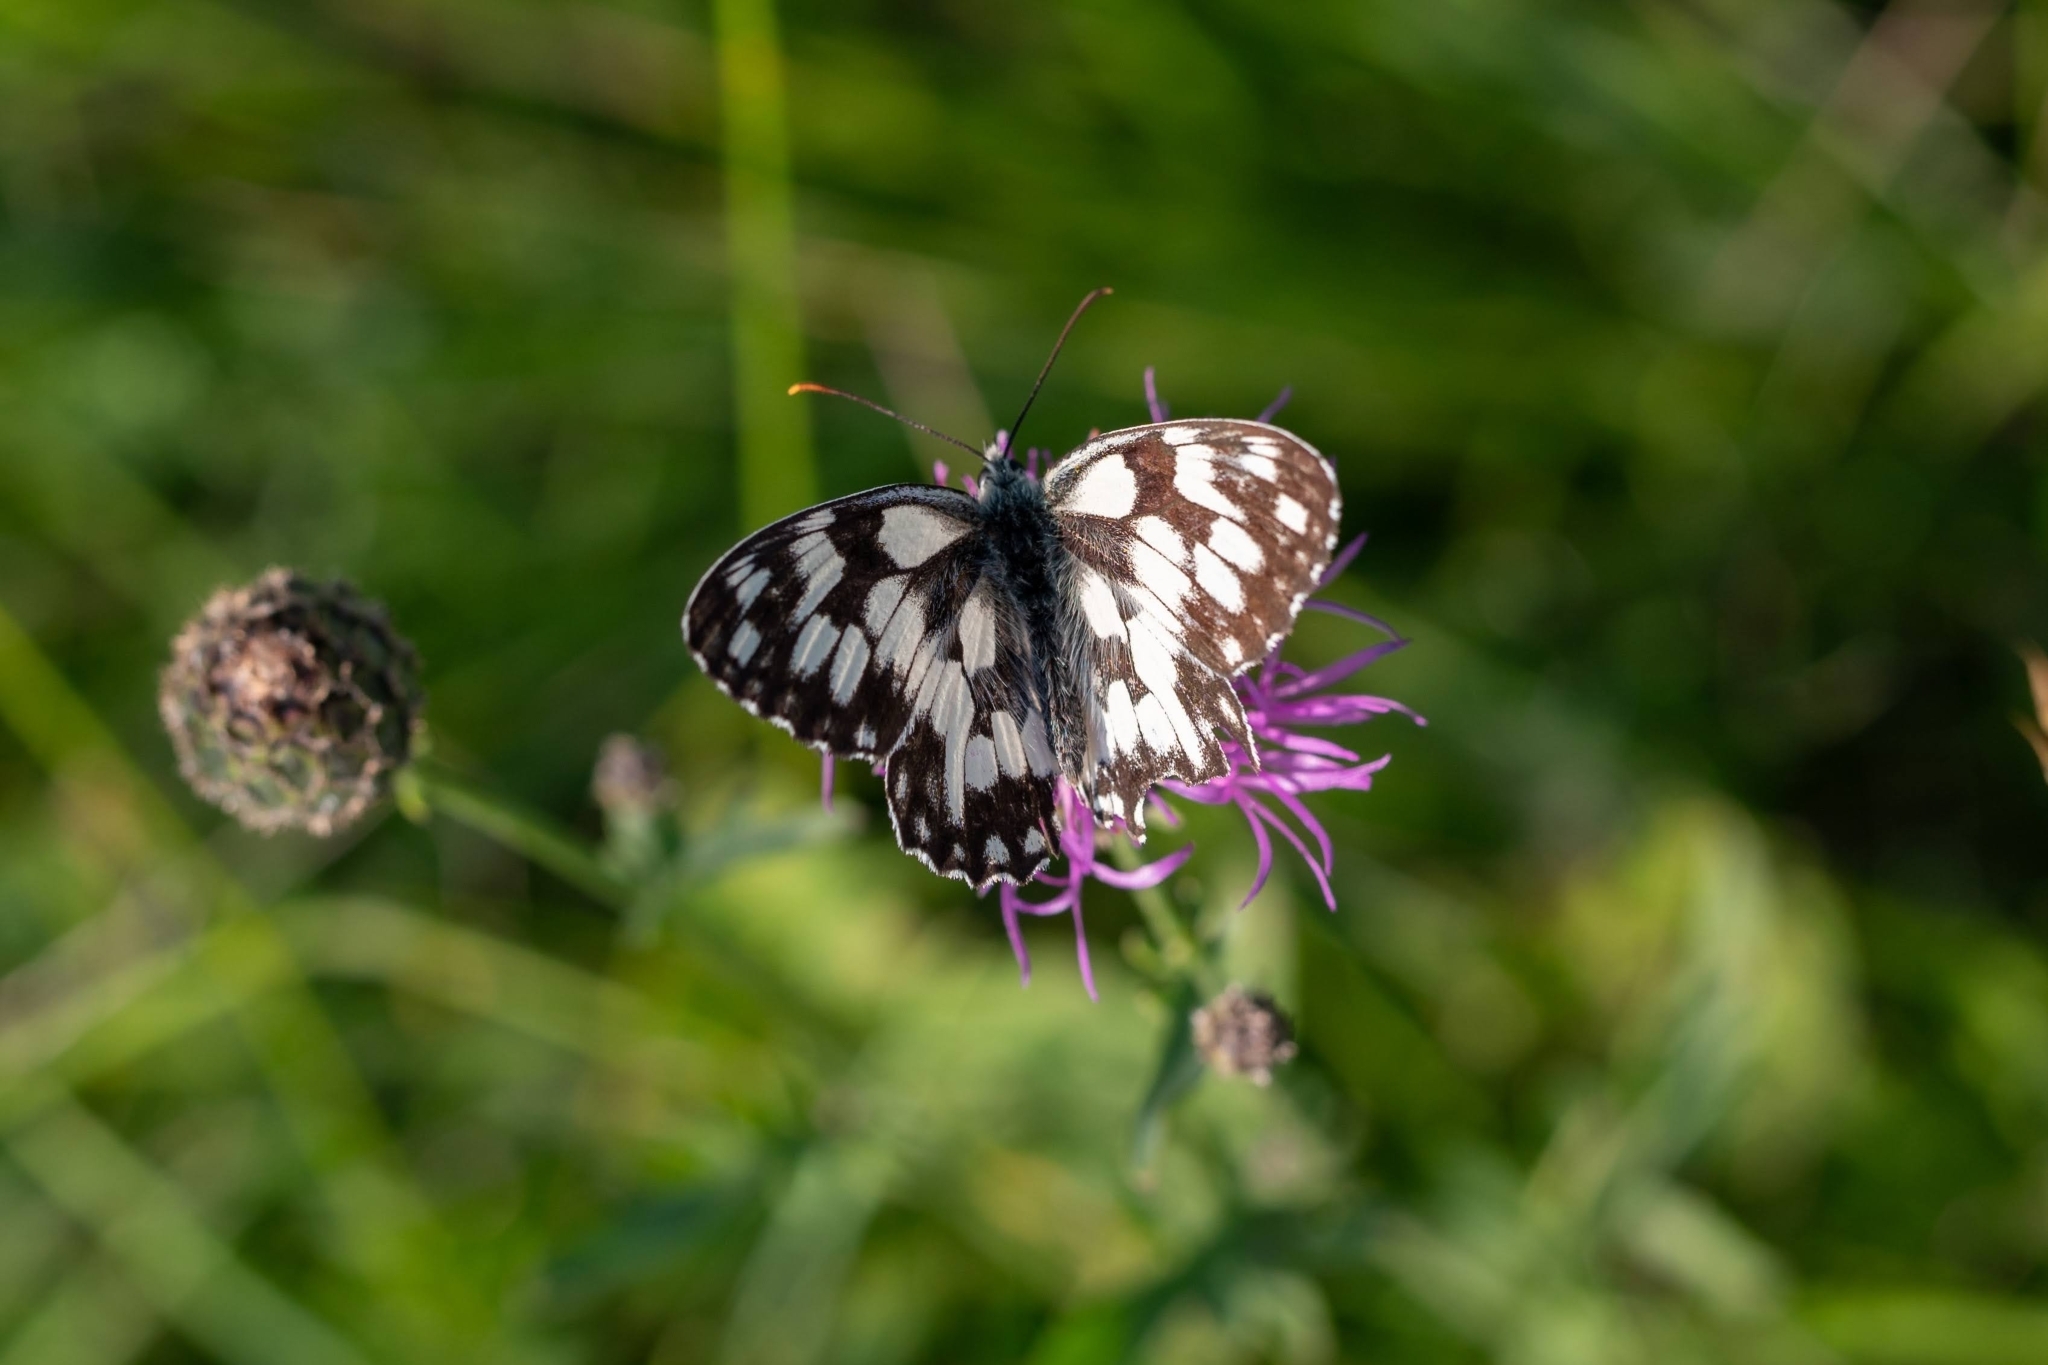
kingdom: Animalia
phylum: Arthropoda
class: Insecta
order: Lepidoptera
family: Nymphalidae
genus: Melanargia
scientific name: Melanargia galathea
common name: Marbled white
